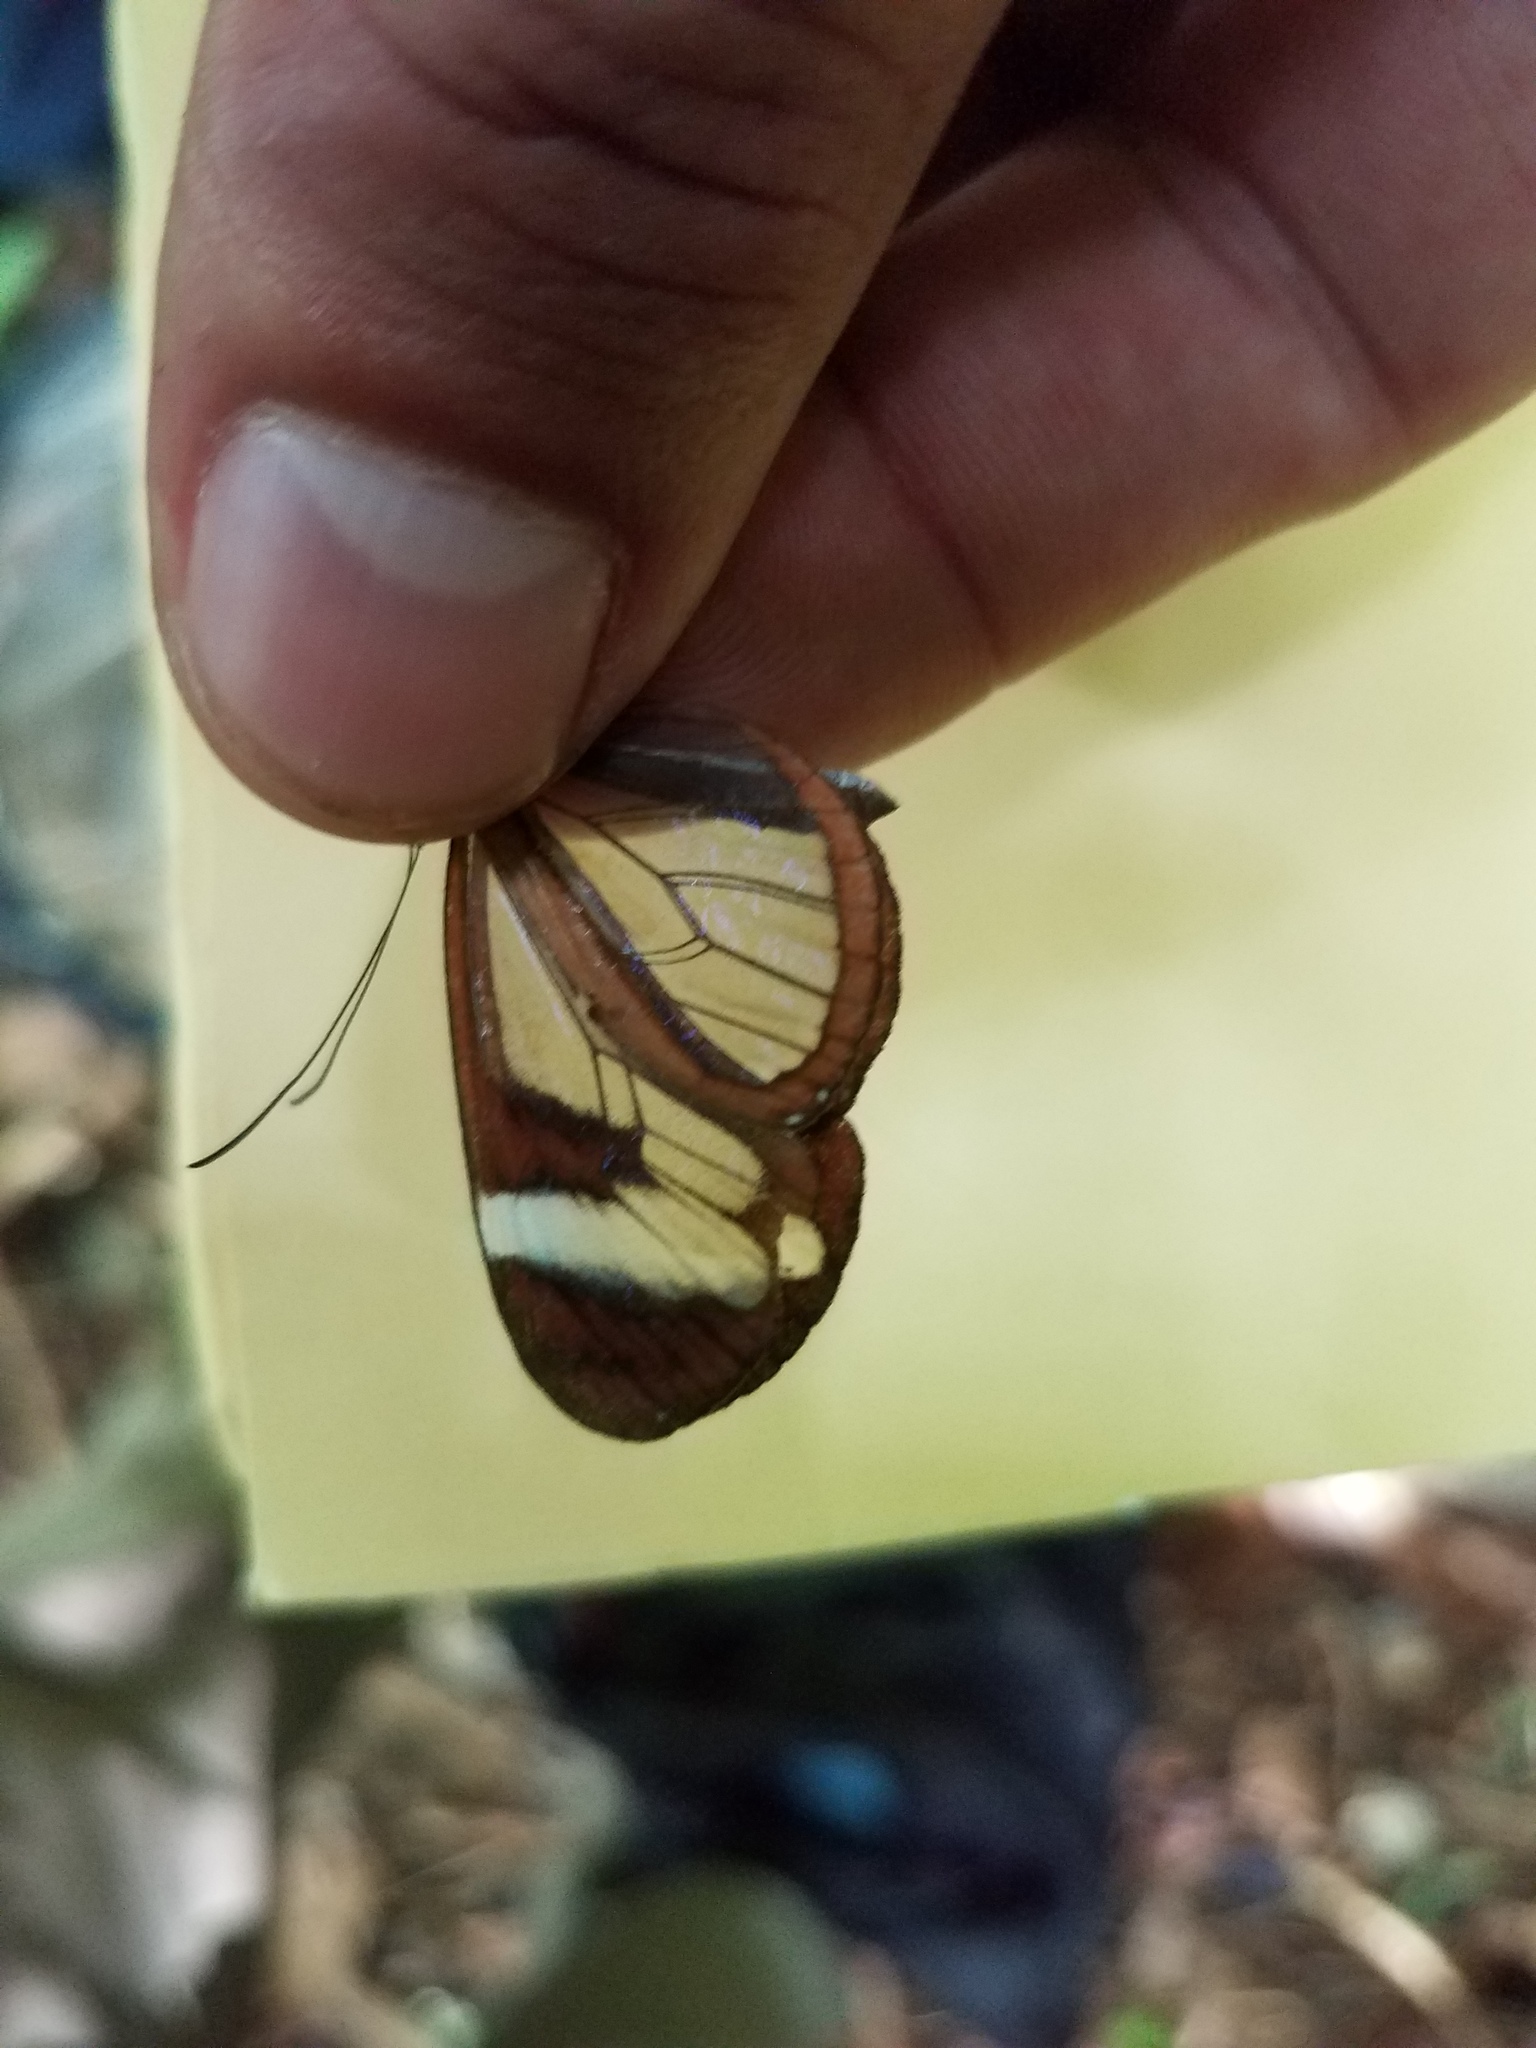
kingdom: Animalia
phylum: Arthropoda
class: Insecta
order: Lepidoptera
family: Nymphalidae
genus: Oleria
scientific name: Oleria paula
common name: Paula's clearwing
